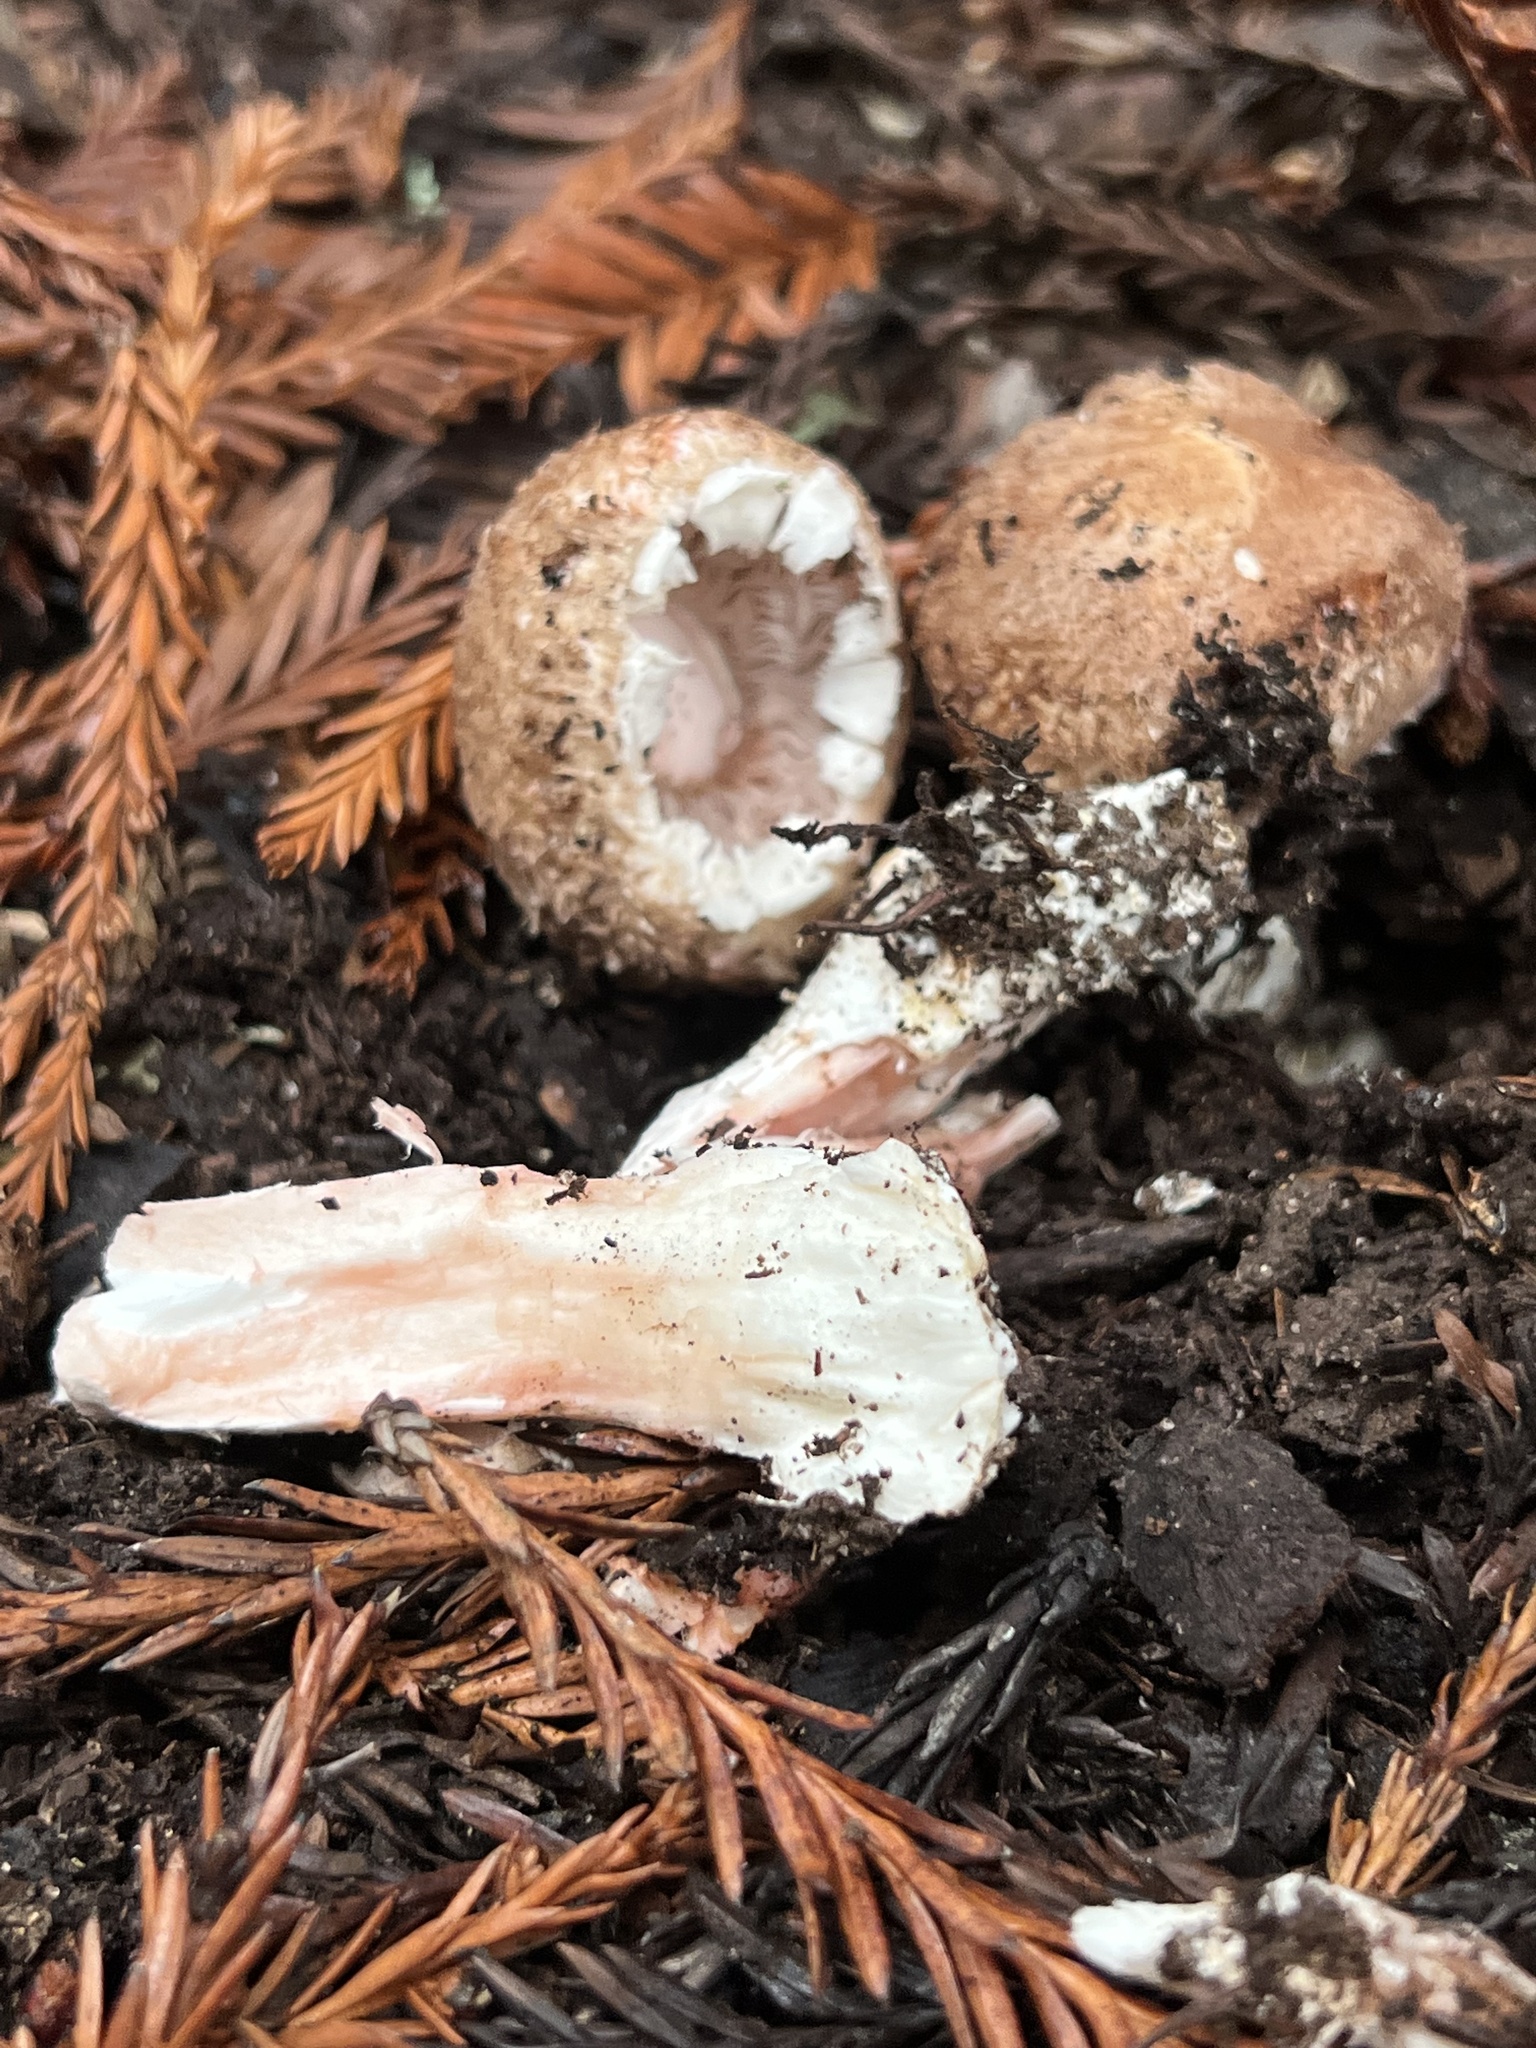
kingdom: Fungi
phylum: Basidiomycota
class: Agaricomycetes
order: Agaricales
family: Agaricaceae
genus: Agaricus
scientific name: Agaricus arorae
